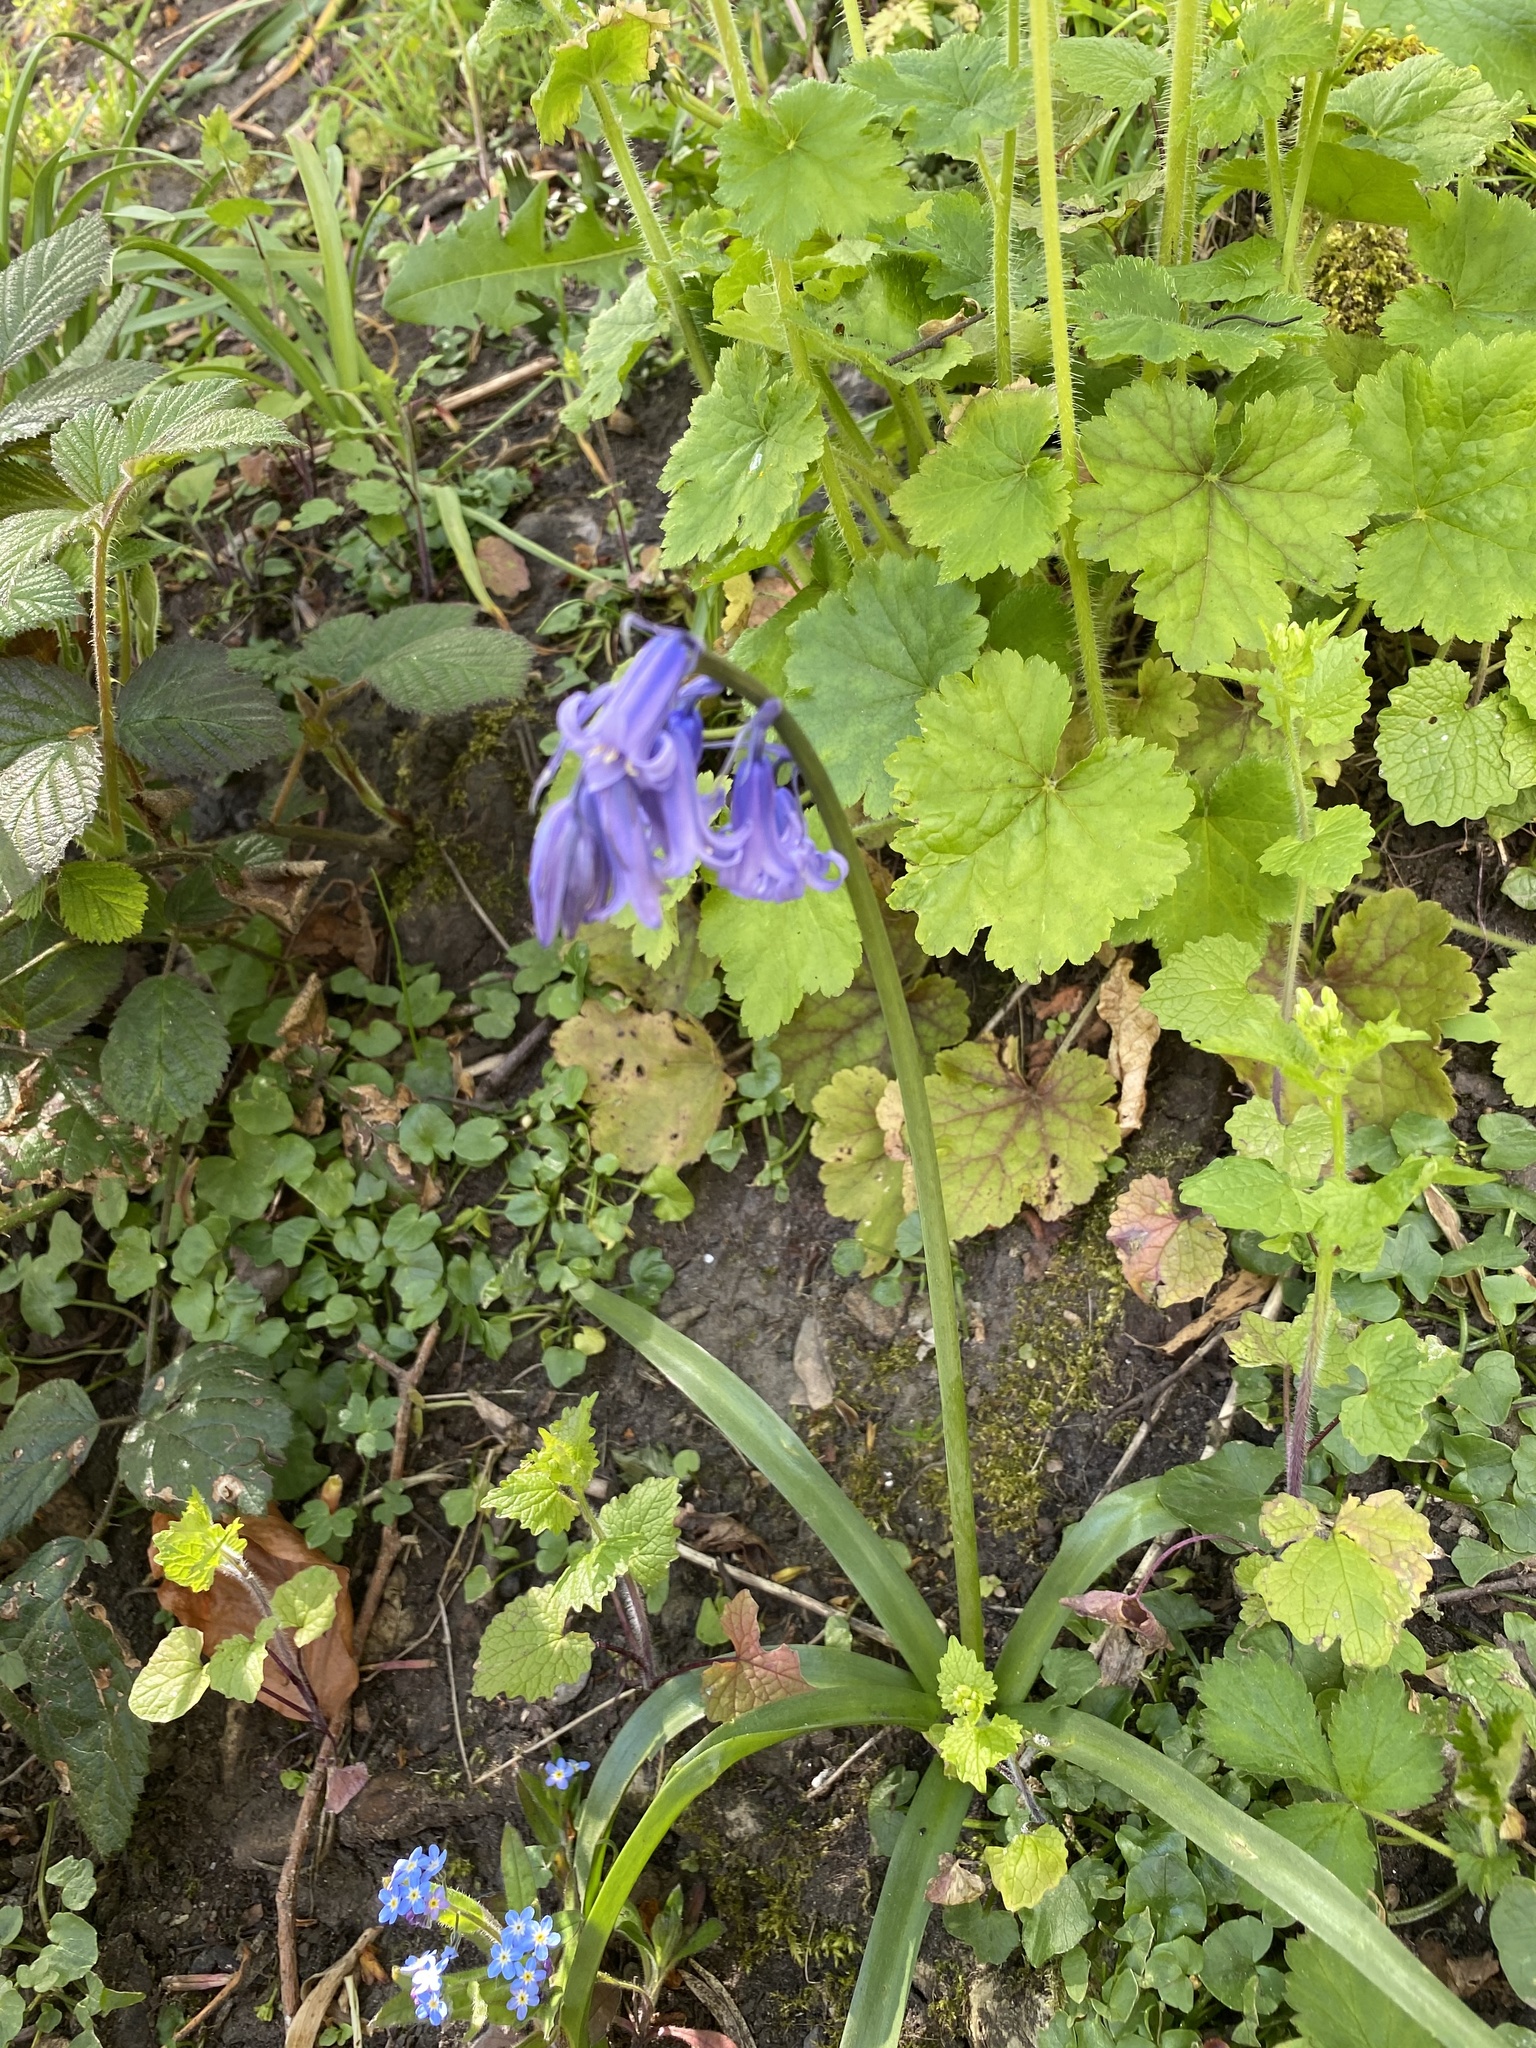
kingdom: Plantae
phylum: Tracheophyta
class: Liliopsida
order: Asparagales
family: Asparagaceae
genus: Hyacinthoides
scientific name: Hyacinthoides non-scripta
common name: Bluebell
